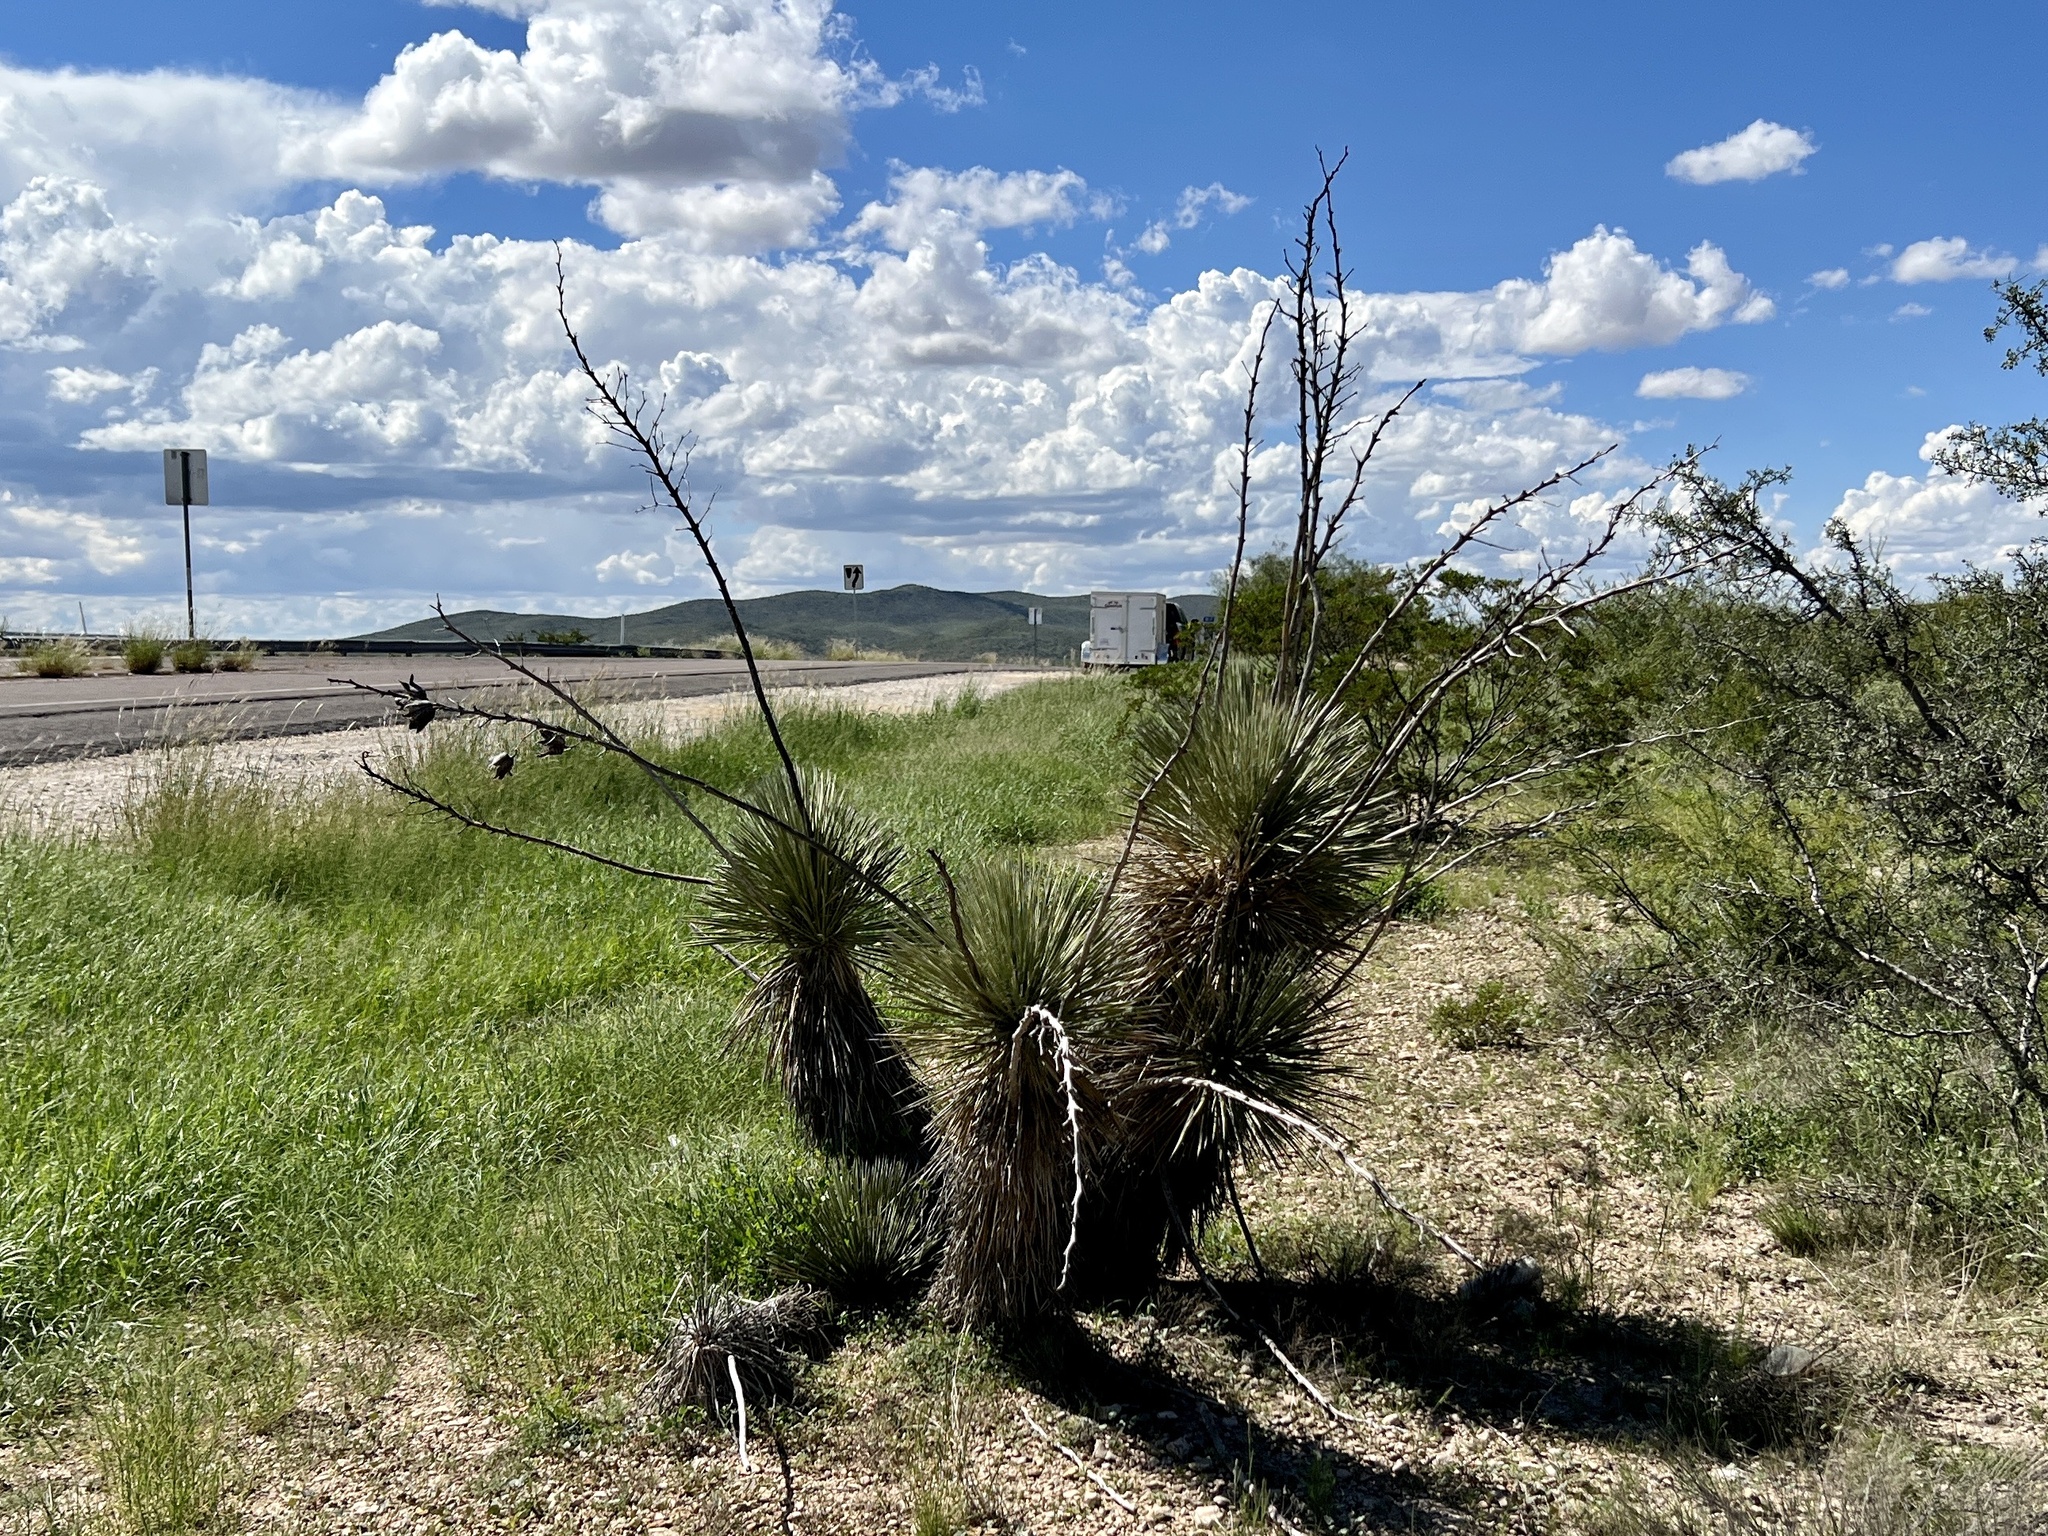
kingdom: Plantae
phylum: Tracheophyta
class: Liliopsida
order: Asparagales
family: Asparagaceae
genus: Yucca
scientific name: Yucca elata
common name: Palmella
